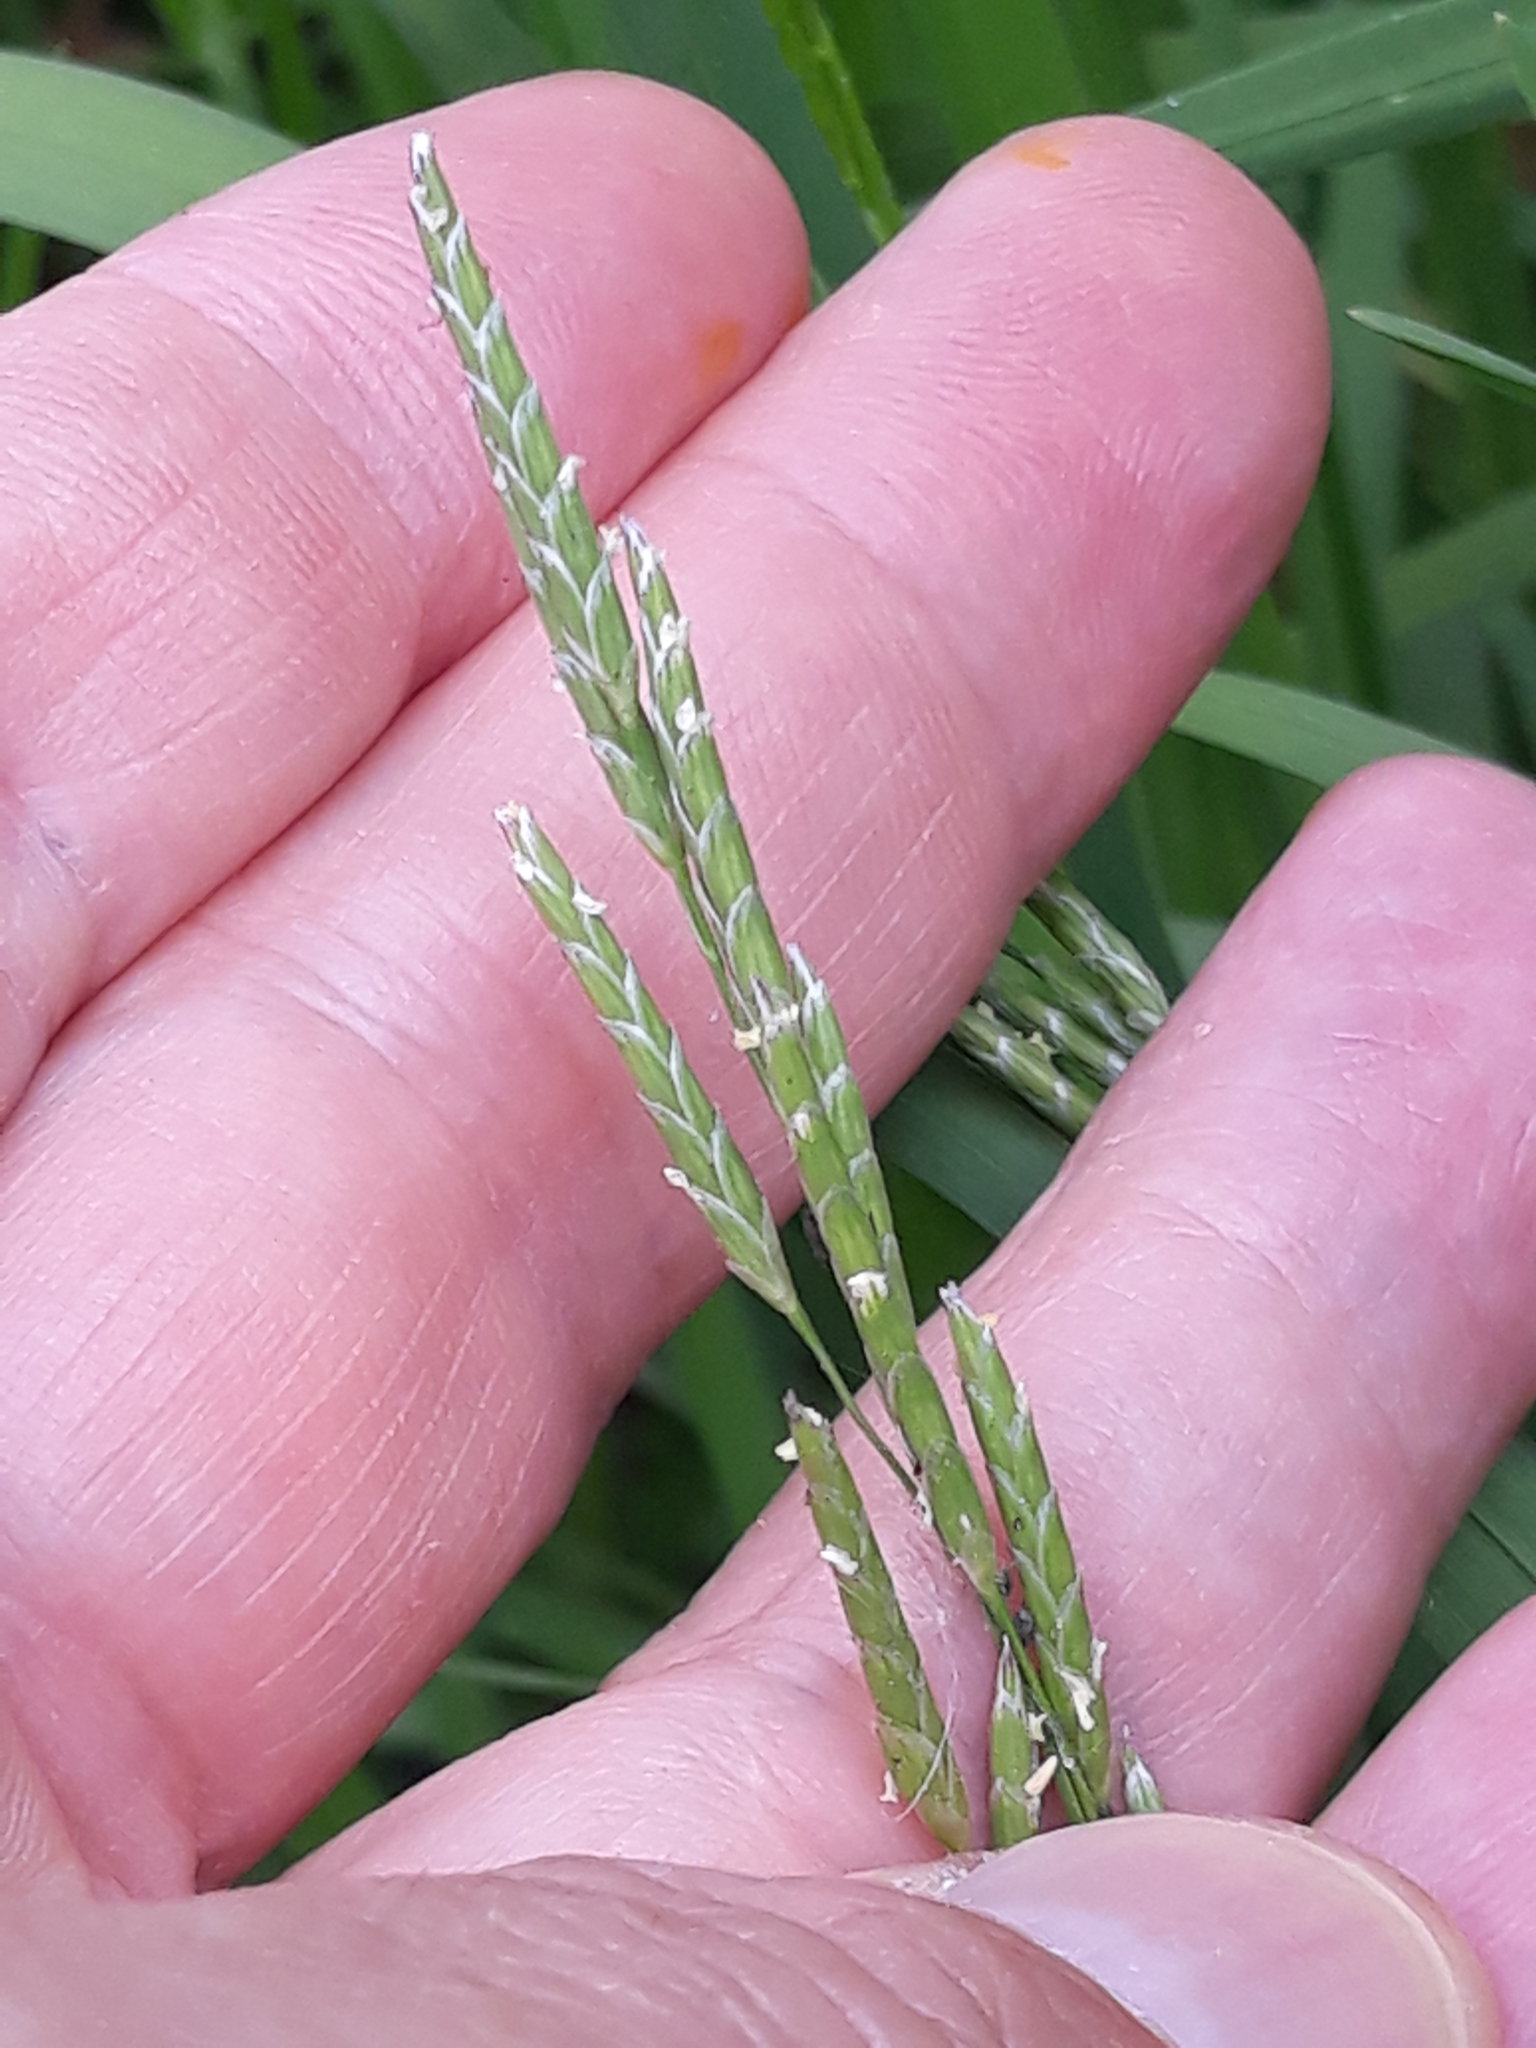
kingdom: Plantae
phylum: Tracheophyta
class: Liliopsida
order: Poales
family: Poaceae
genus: Glyceria
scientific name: Glyceria notata
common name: Plicate sweet-grass
